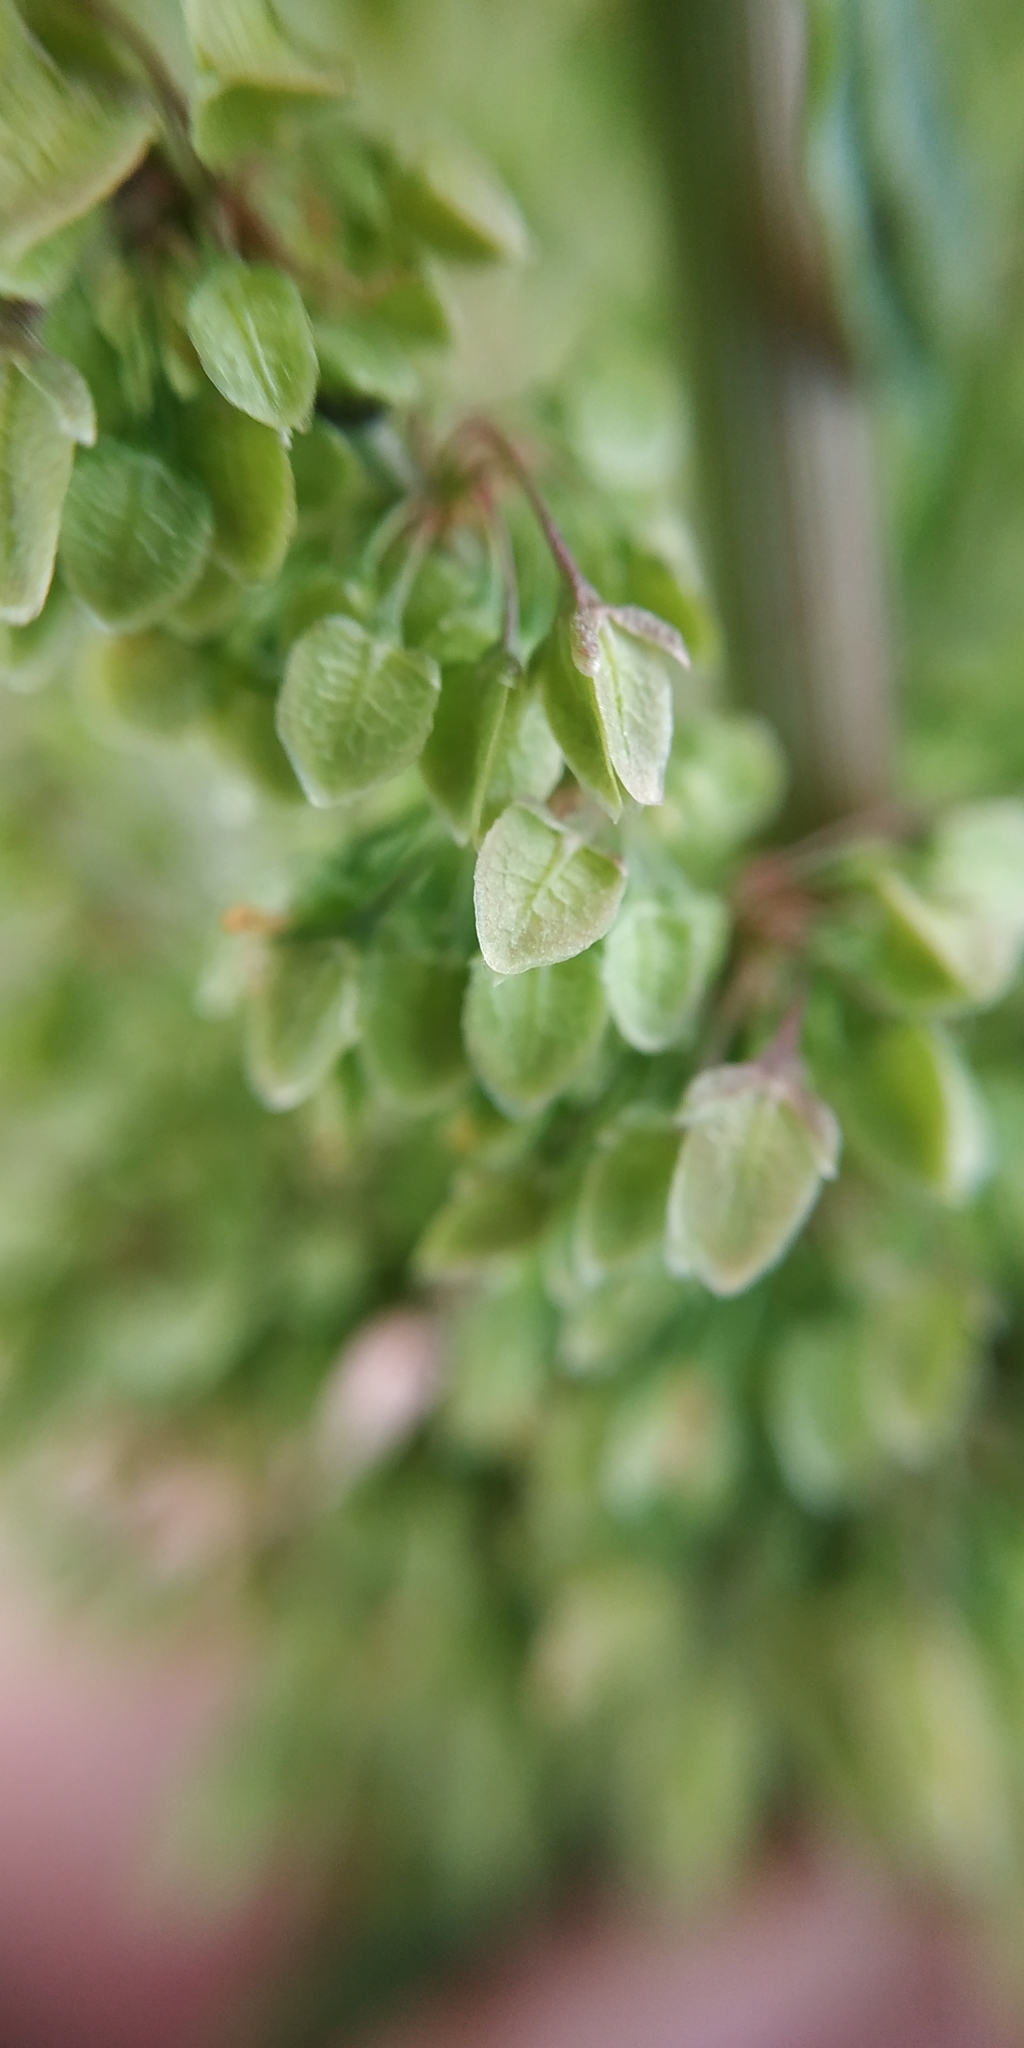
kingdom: Plantae
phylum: Tracheophyta
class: Magnoliopsida
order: Caryophyllales
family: Polygonaceae
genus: Rumex
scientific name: Rumex pseudonatronatus
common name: Field dock
